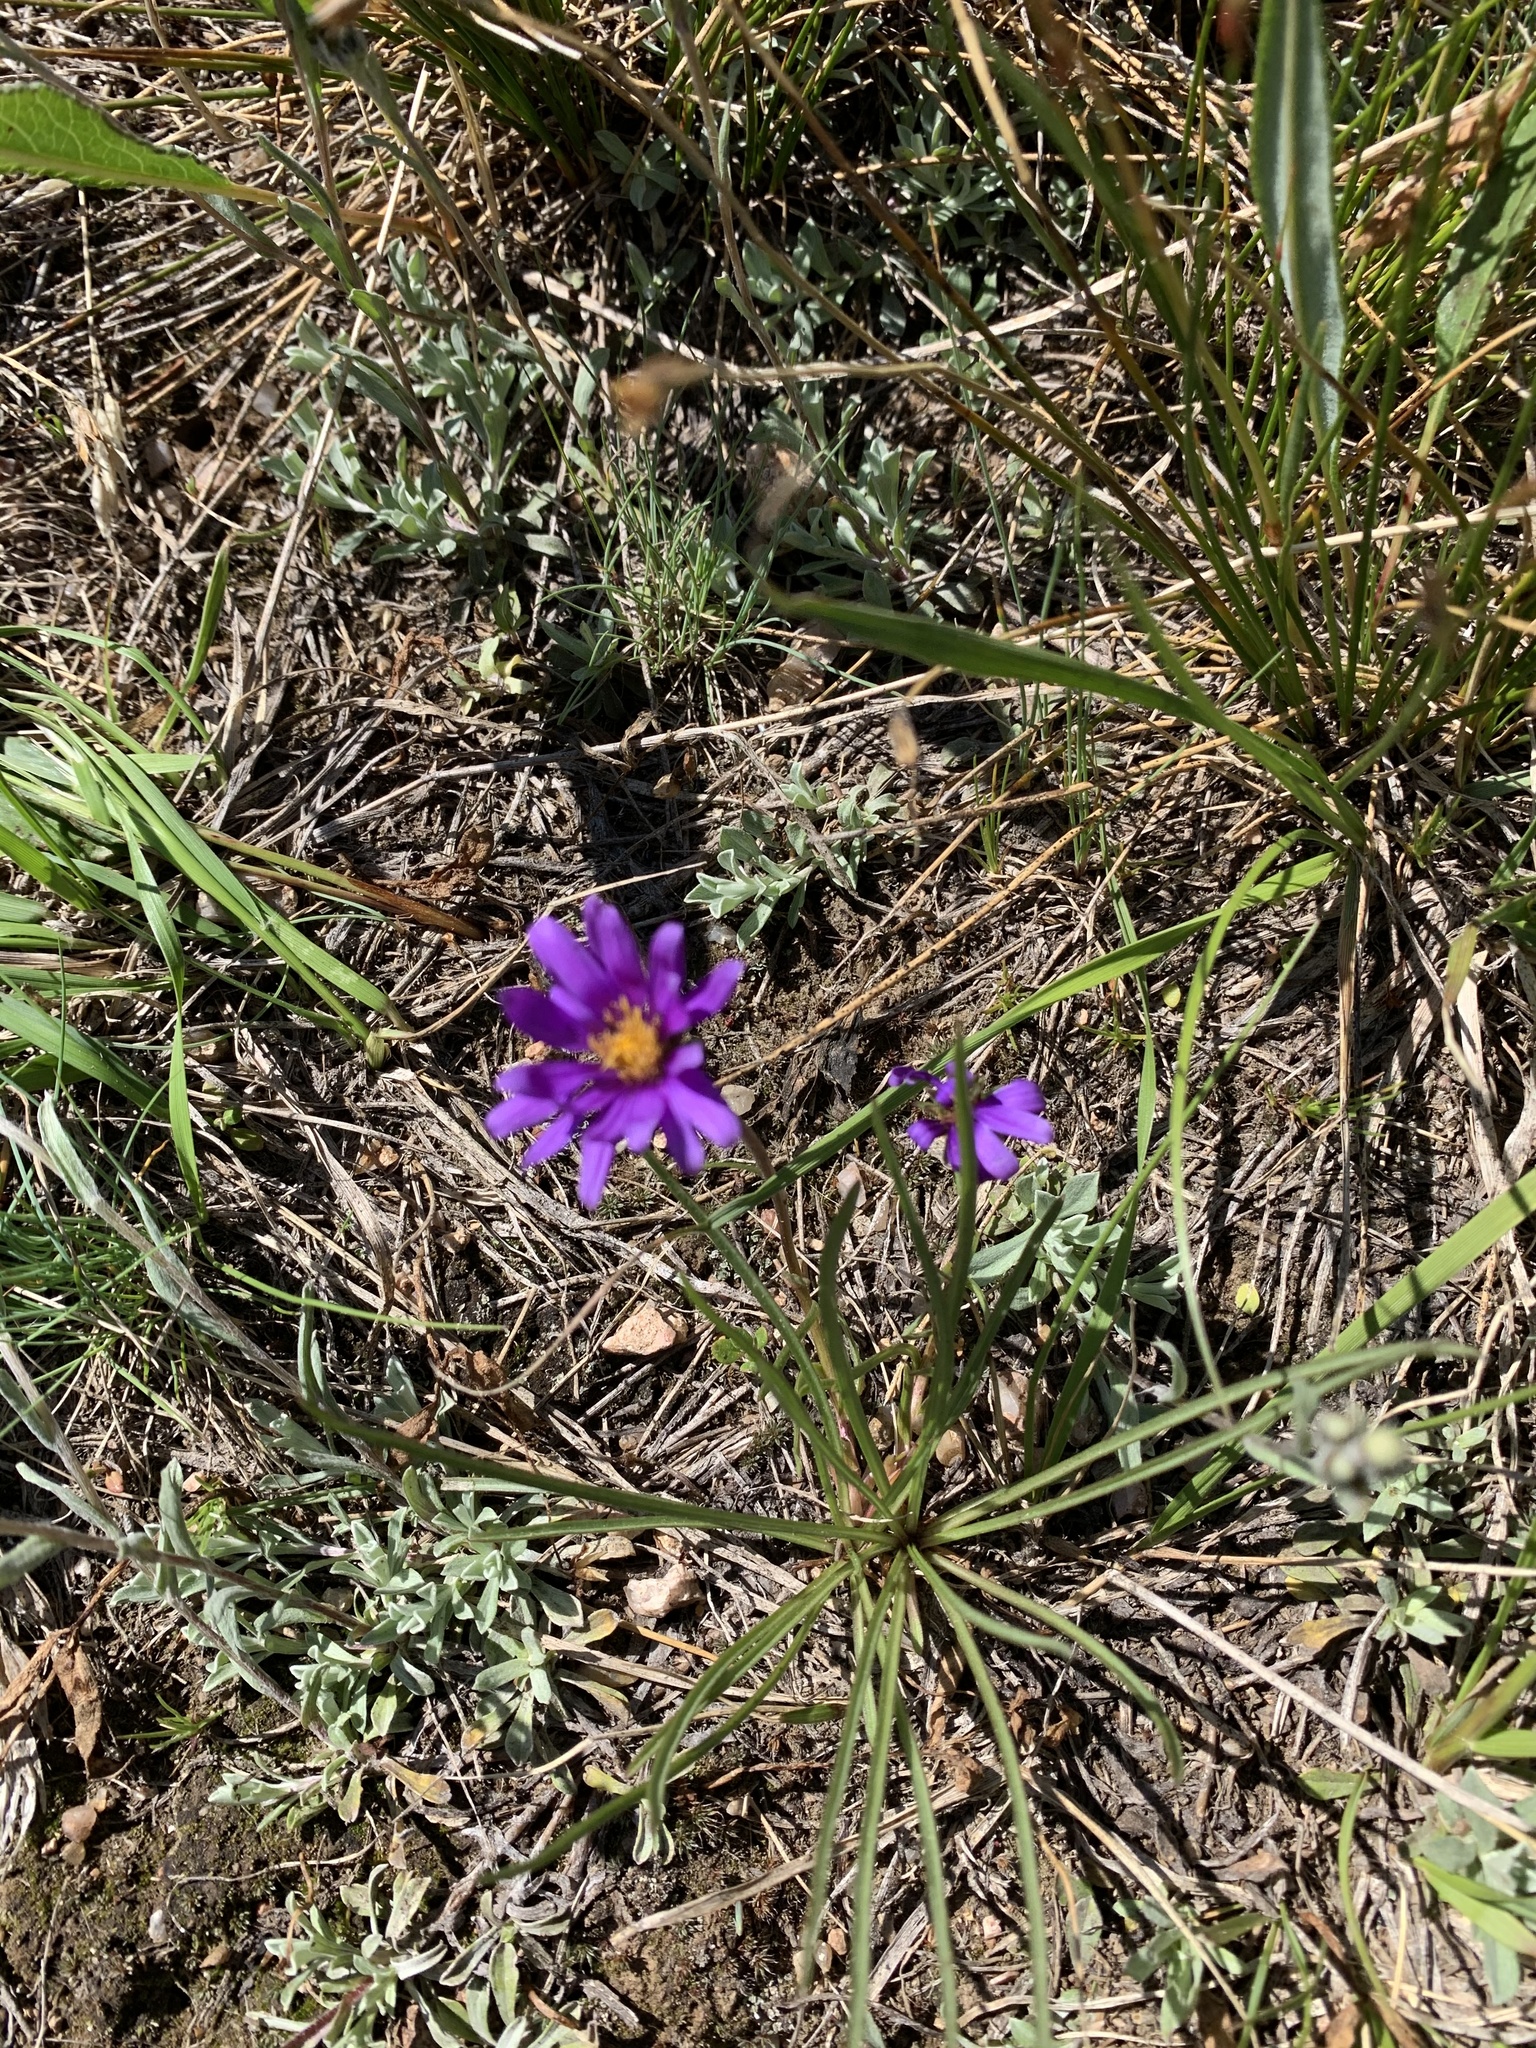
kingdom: Plantae
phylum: Tracheophyta
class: Magnoliopsida
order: Asterales
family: Asteraceae
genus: Oreostemma
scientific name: Oreostemma alpigenum
